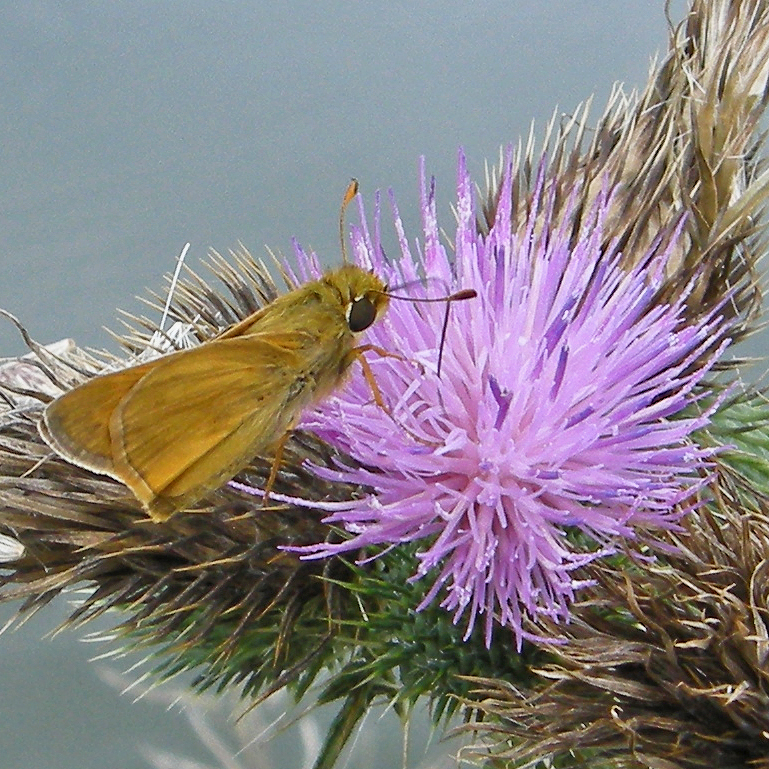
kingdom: Animalia
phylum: Arthropoda
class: Insecta
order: Lepidoptera
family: Hesperiidae
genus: Atalopedes
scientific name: Atalopedes
